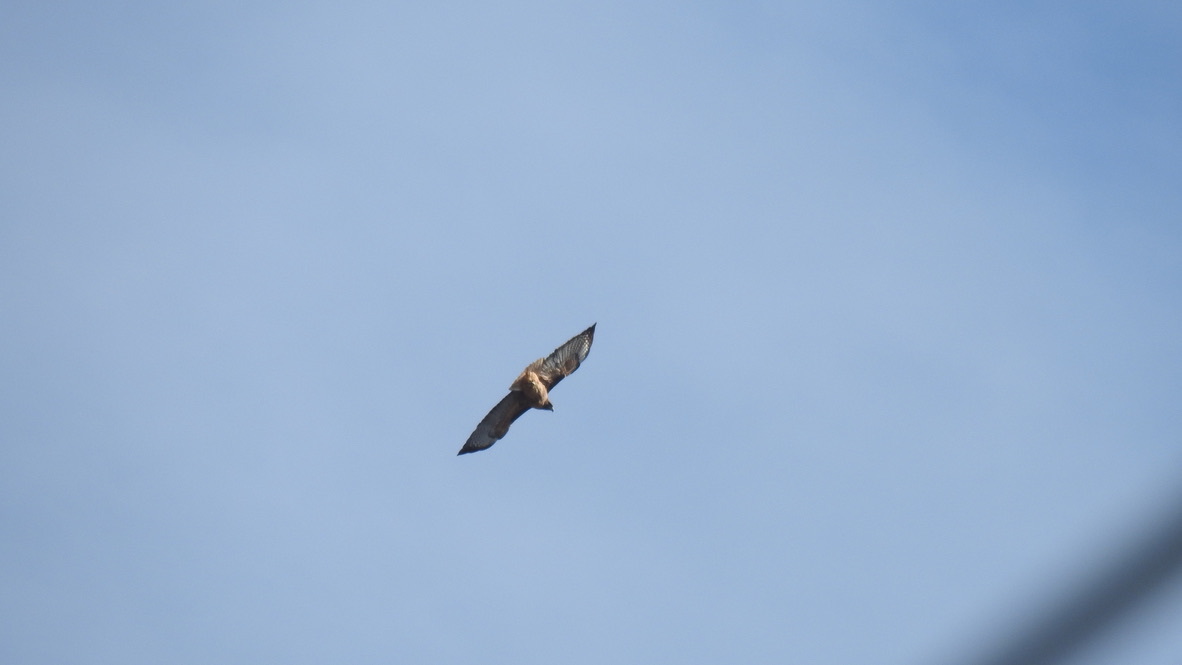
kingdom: Animalia
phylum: Chordata
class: Aves
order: Accipitriformes
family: Accipitridae
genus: Buteo
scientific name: Buteo jamaicensis
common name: Red-tailed hawk
